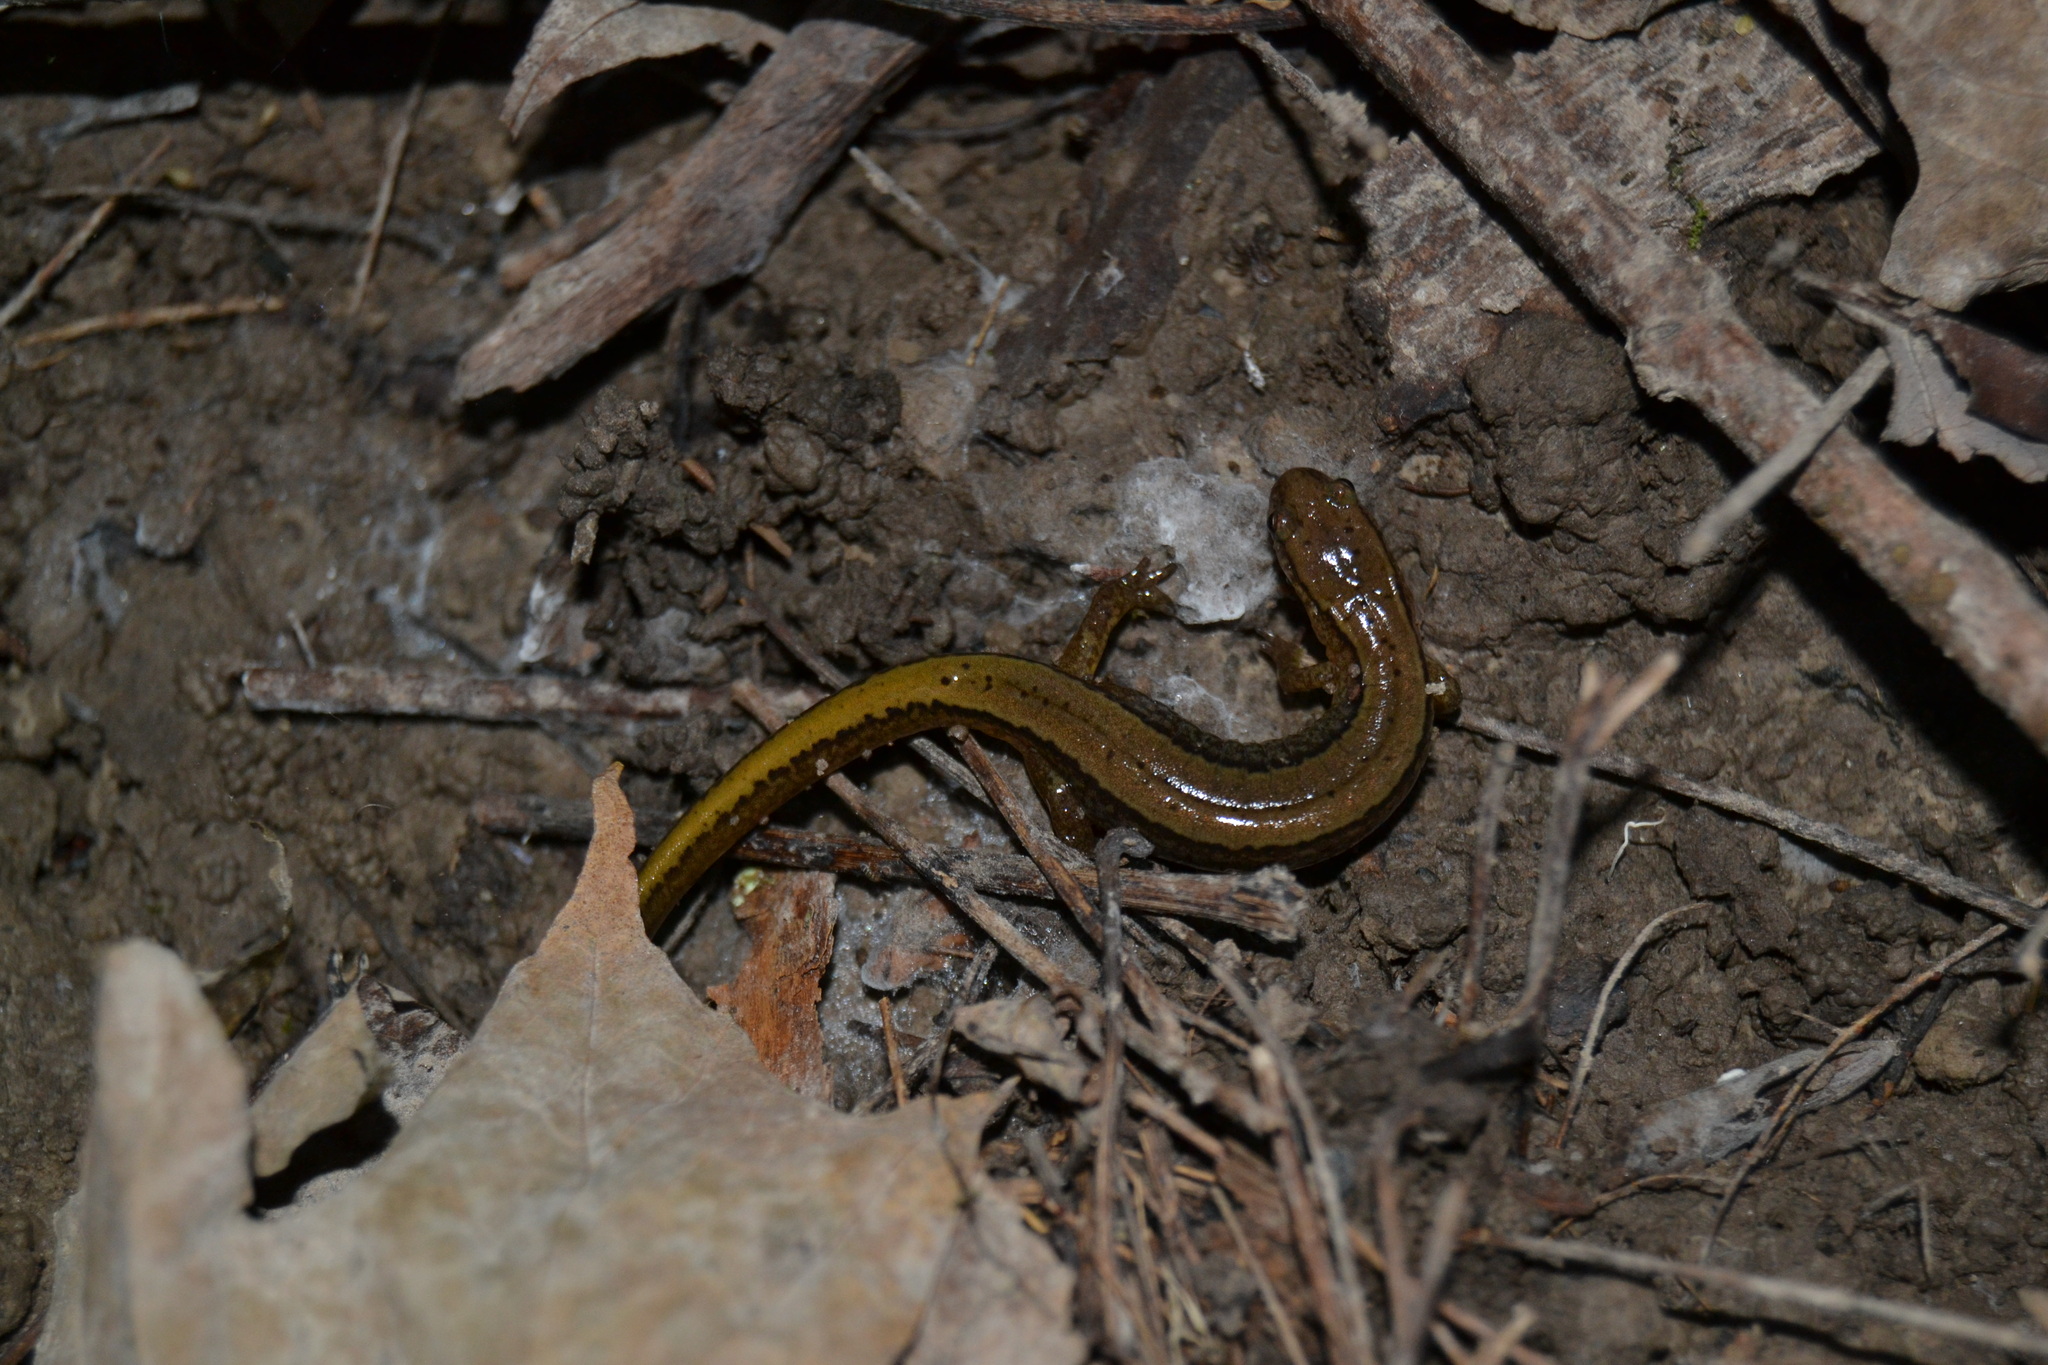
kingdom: Animalia
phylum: Chordata
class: Amphibia
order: Caudata
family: Plethodontidae
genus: Eurycea
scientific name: Eurycea cirrigera
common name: Southern two-lined salamander
